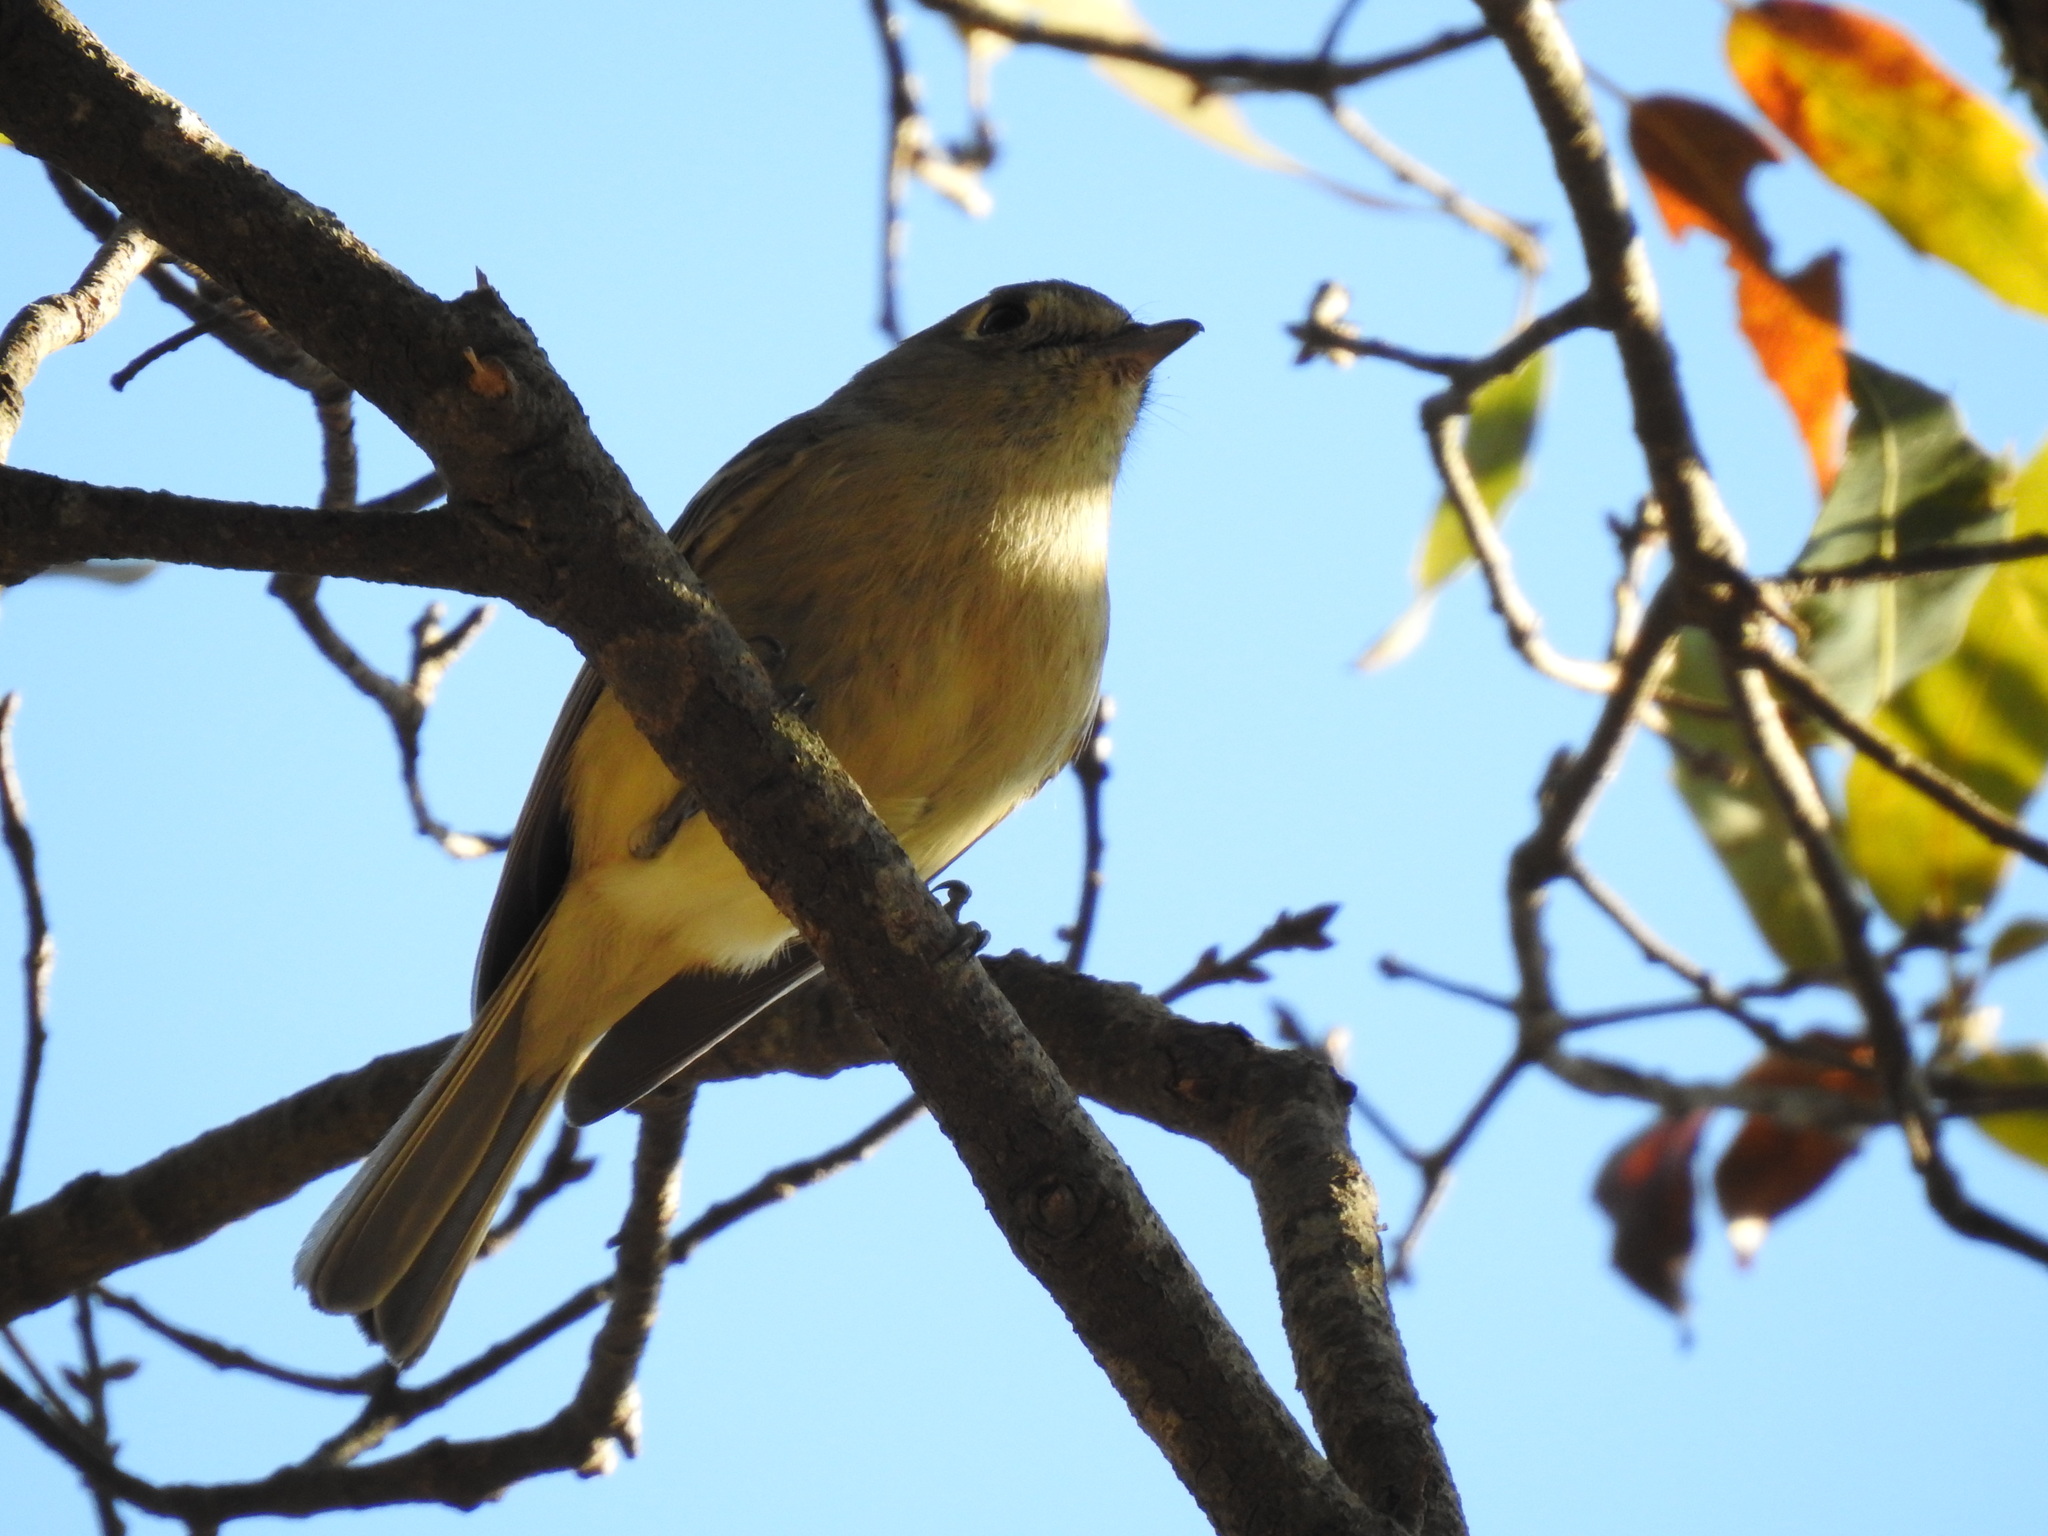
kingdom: Animalia
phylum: Chordata
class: Aves
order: Passeriformes
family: Vireonidae
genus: Vireo
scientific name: Vireo huttoni
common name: Hutton's vireo
